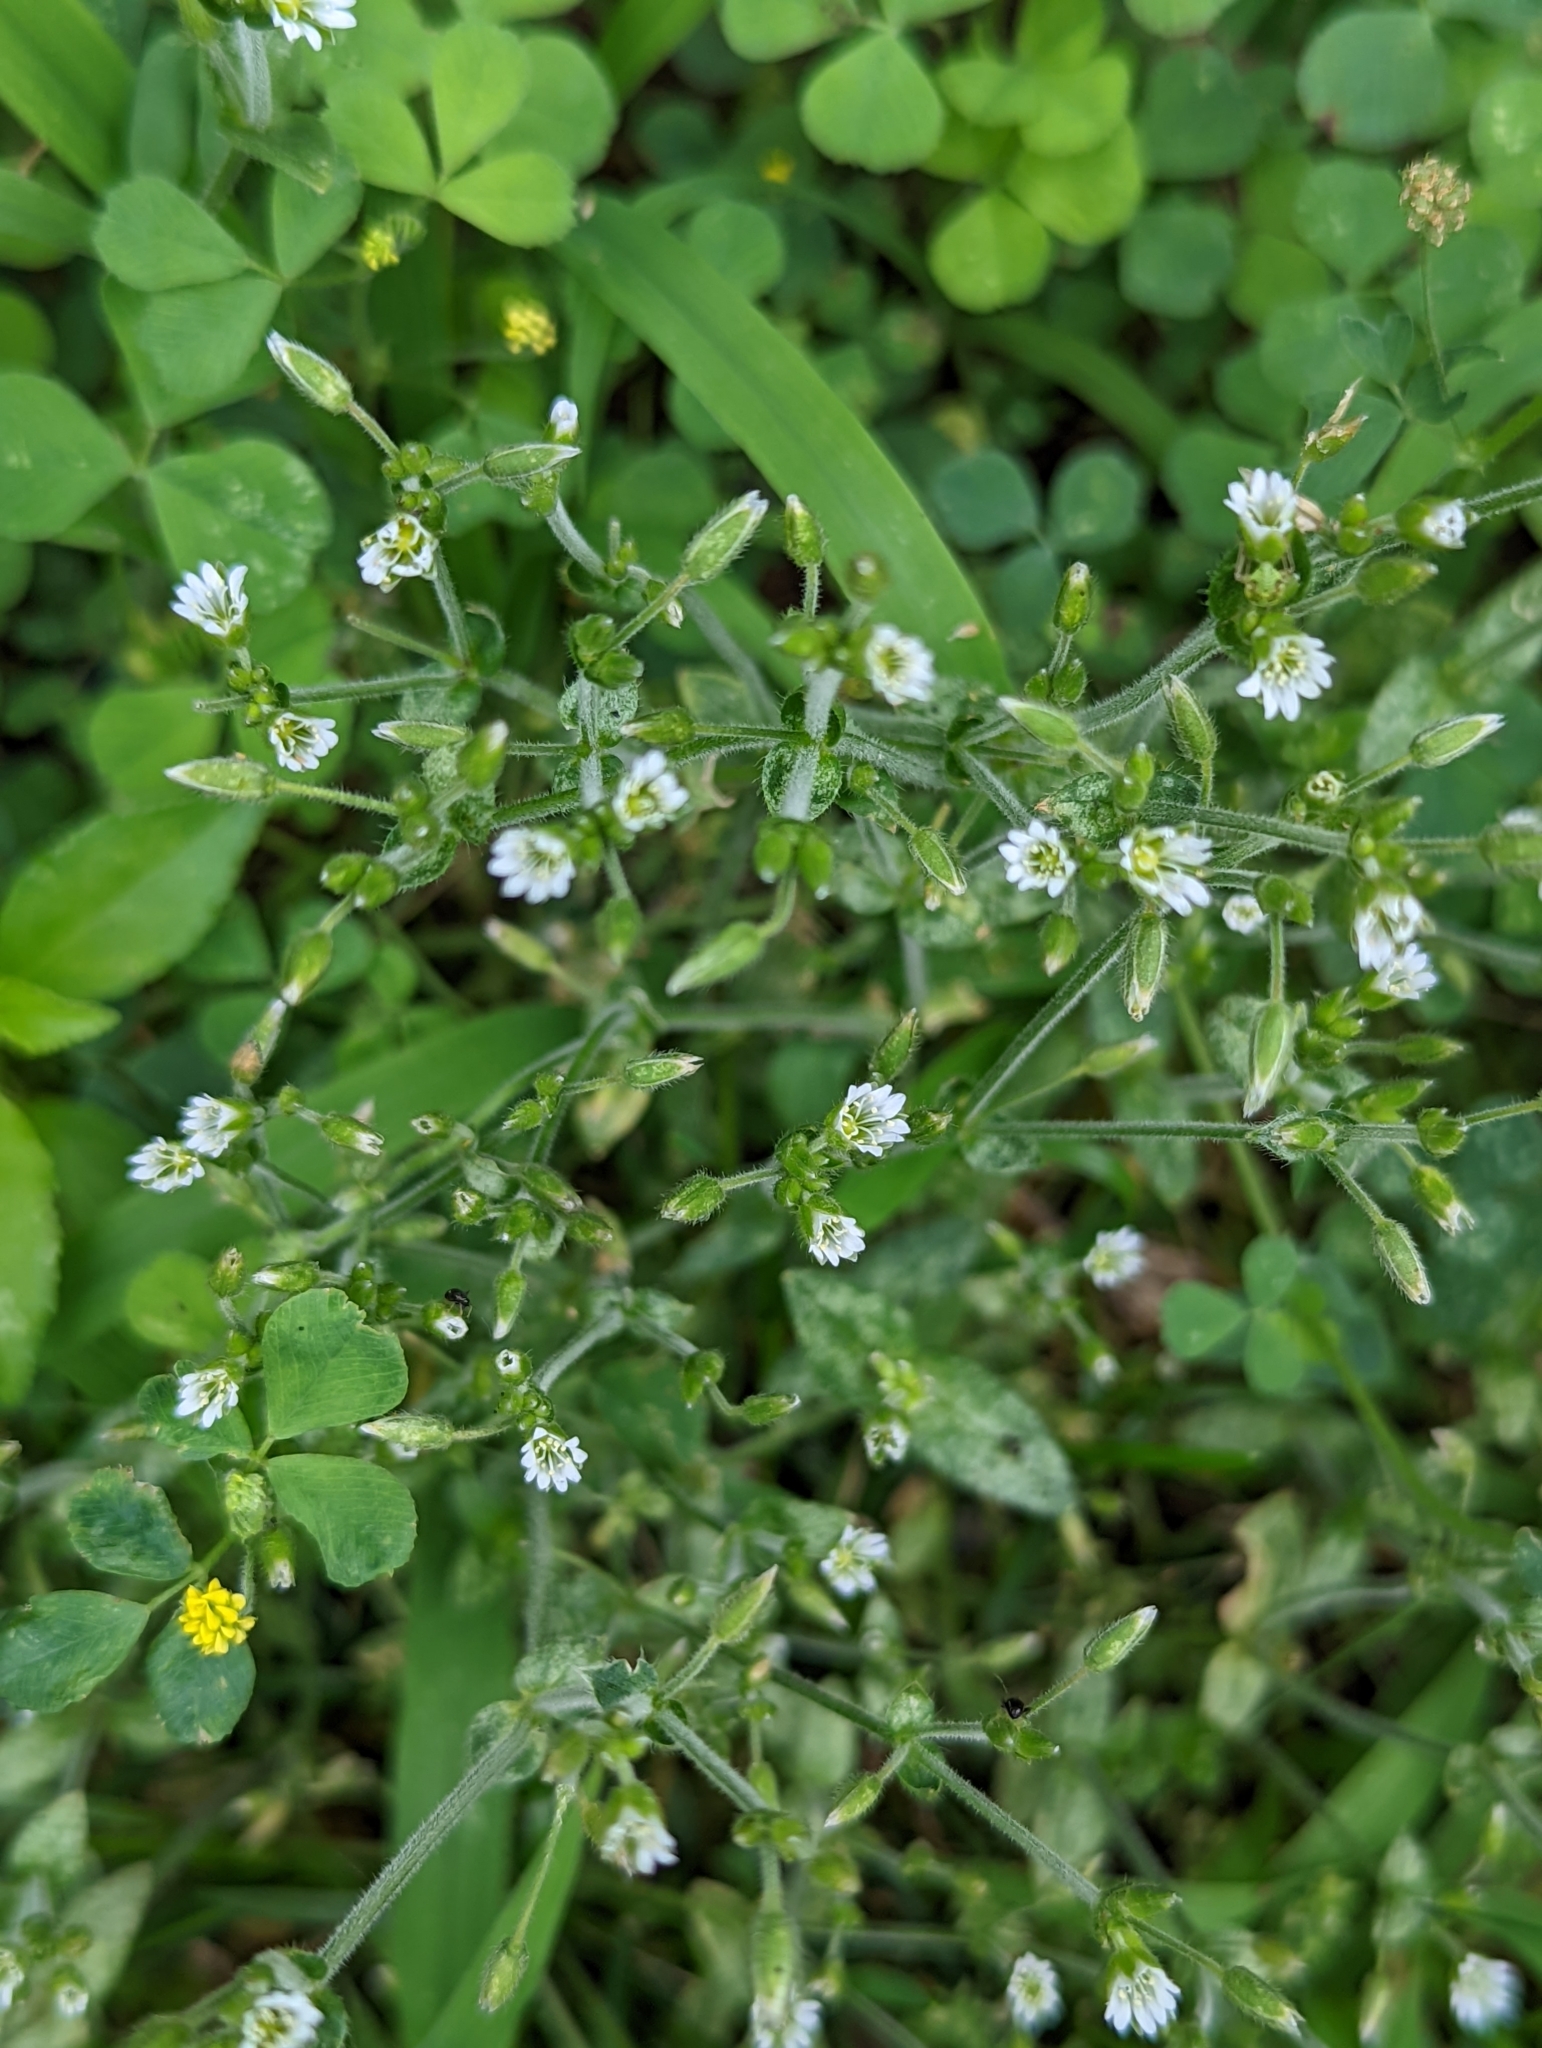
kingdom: Plantae
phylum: Tracheophyta
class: Magnoliopsida
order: Caryophyllales
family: Caryophyllaceae
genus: Cerastium
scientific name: Cerastium fontanum
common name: Common mouse-ear
